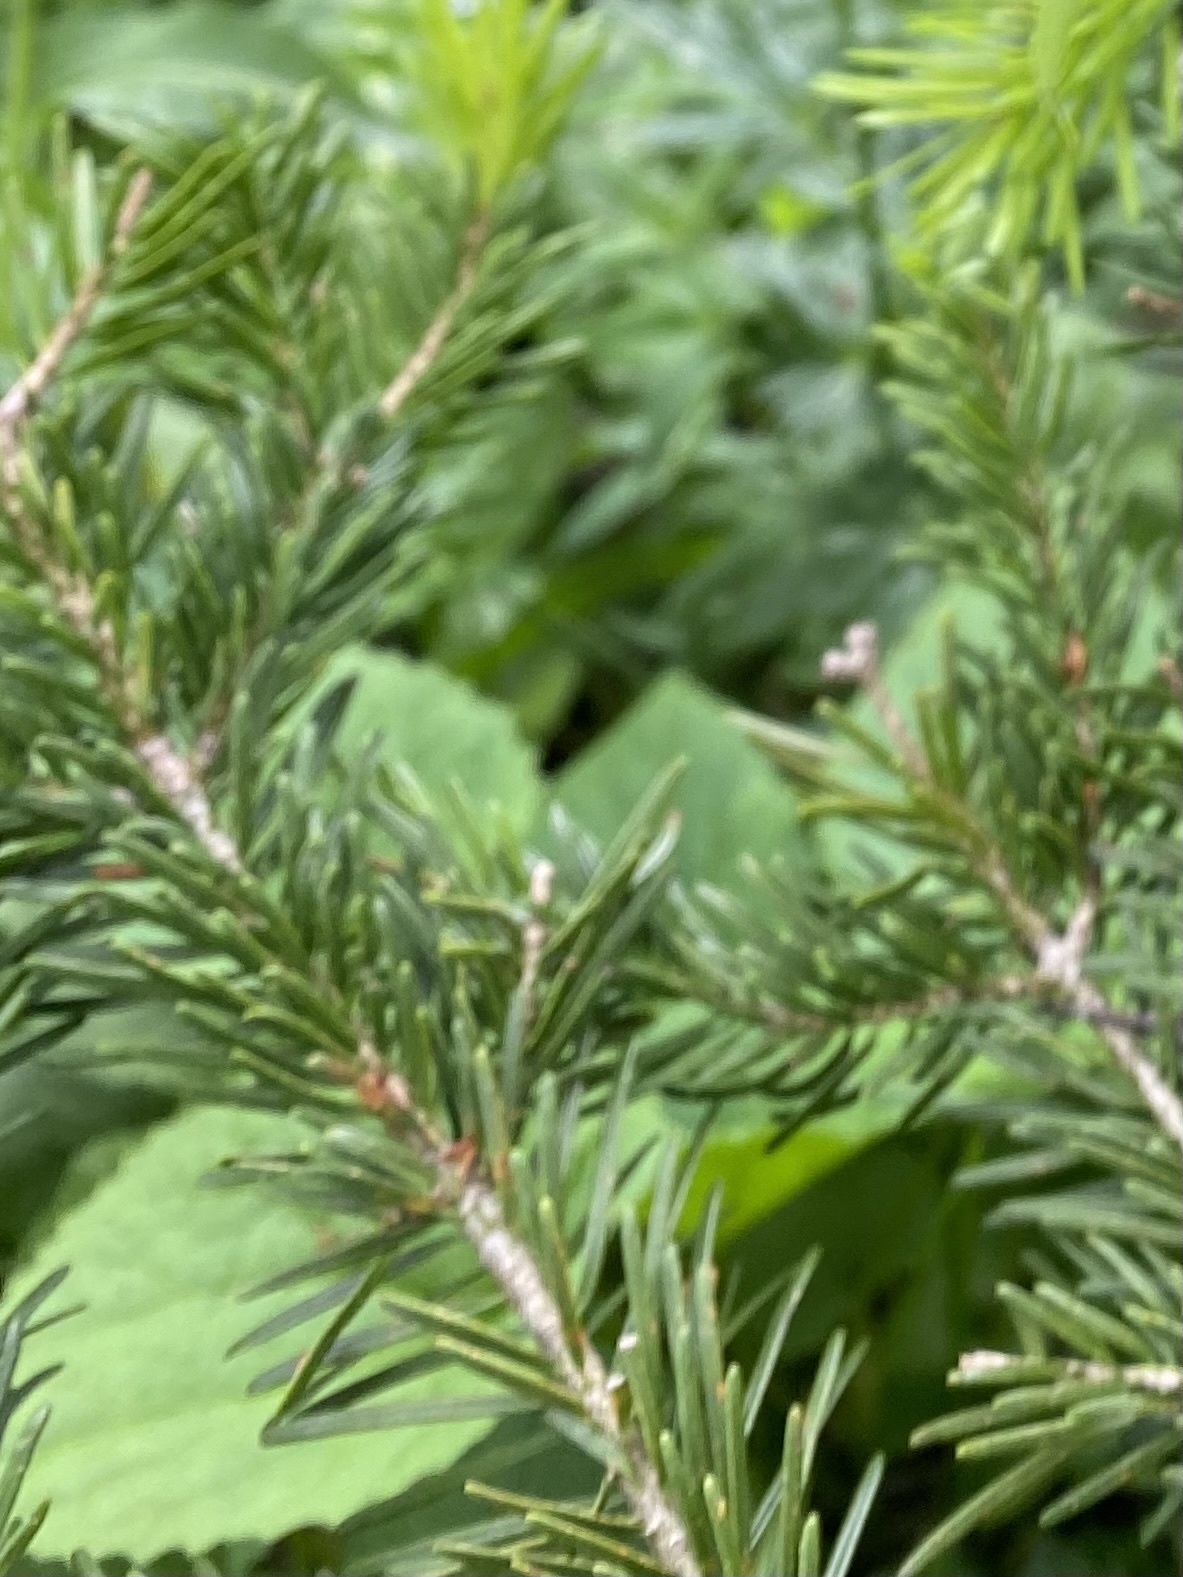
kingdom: Plantae
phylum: Tracheophyta
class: Pinopsida
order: Pinales
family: Pinaceae
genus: Abies
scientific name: Abies nordmanniana
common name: Caucasian fir
